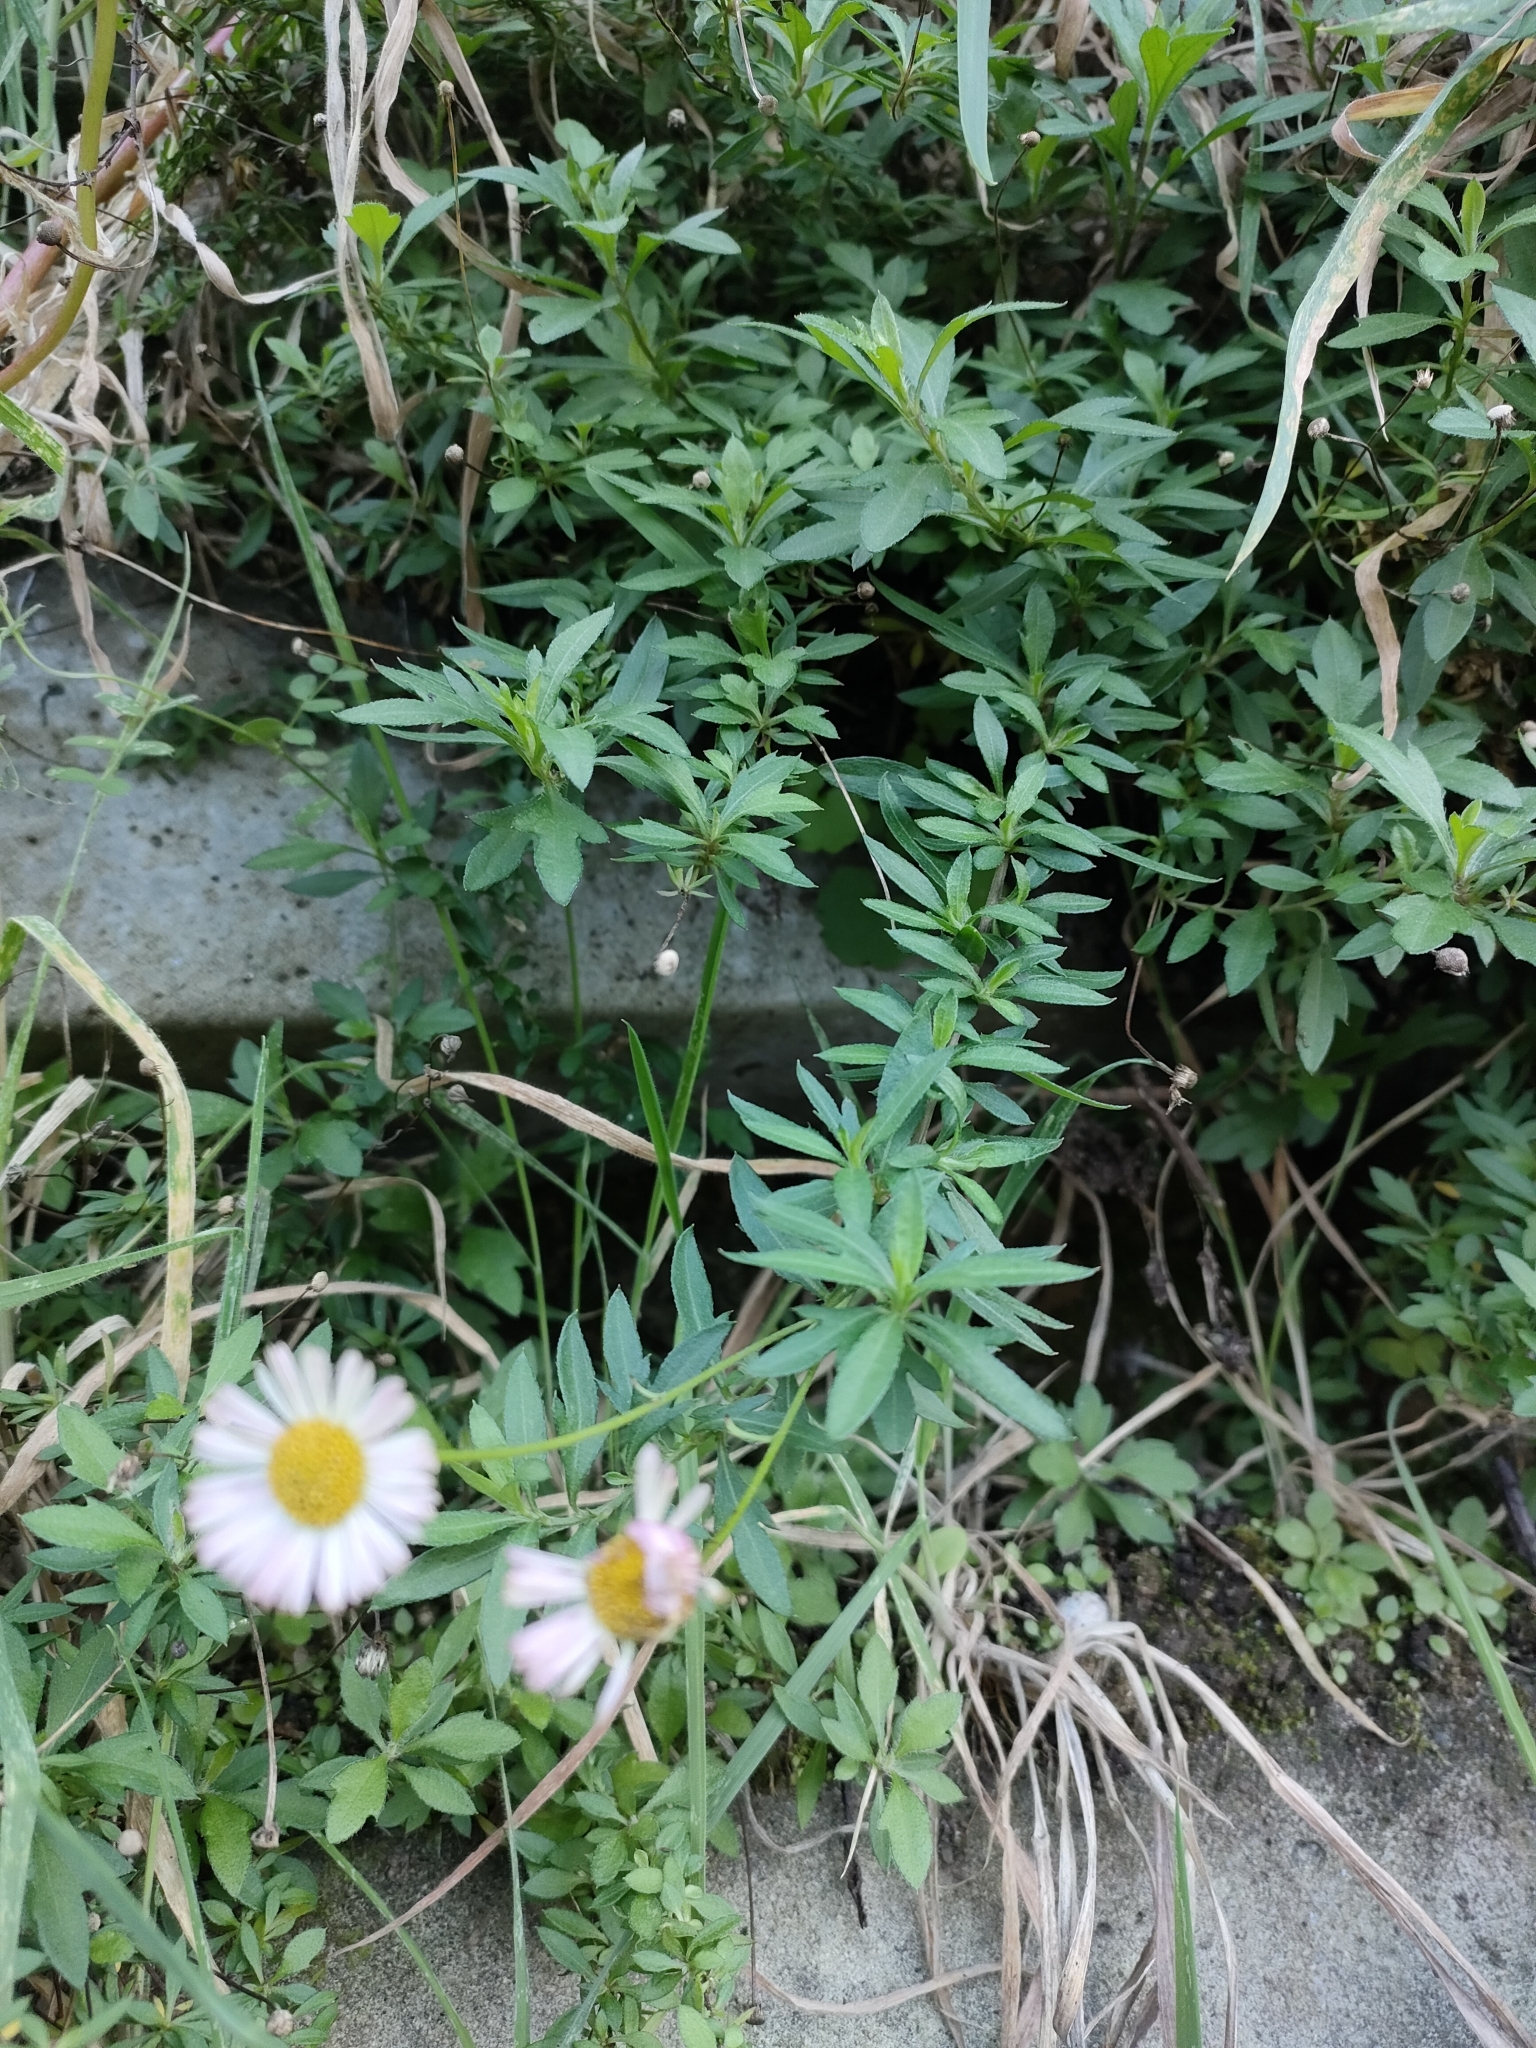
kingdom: Plantae
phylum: Tracheophyta
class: Magnoliopsida
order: Asterales
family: Asteraceae
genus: Erigeron
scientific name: Erigeron karvinskianus
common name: Mexican fleabane
